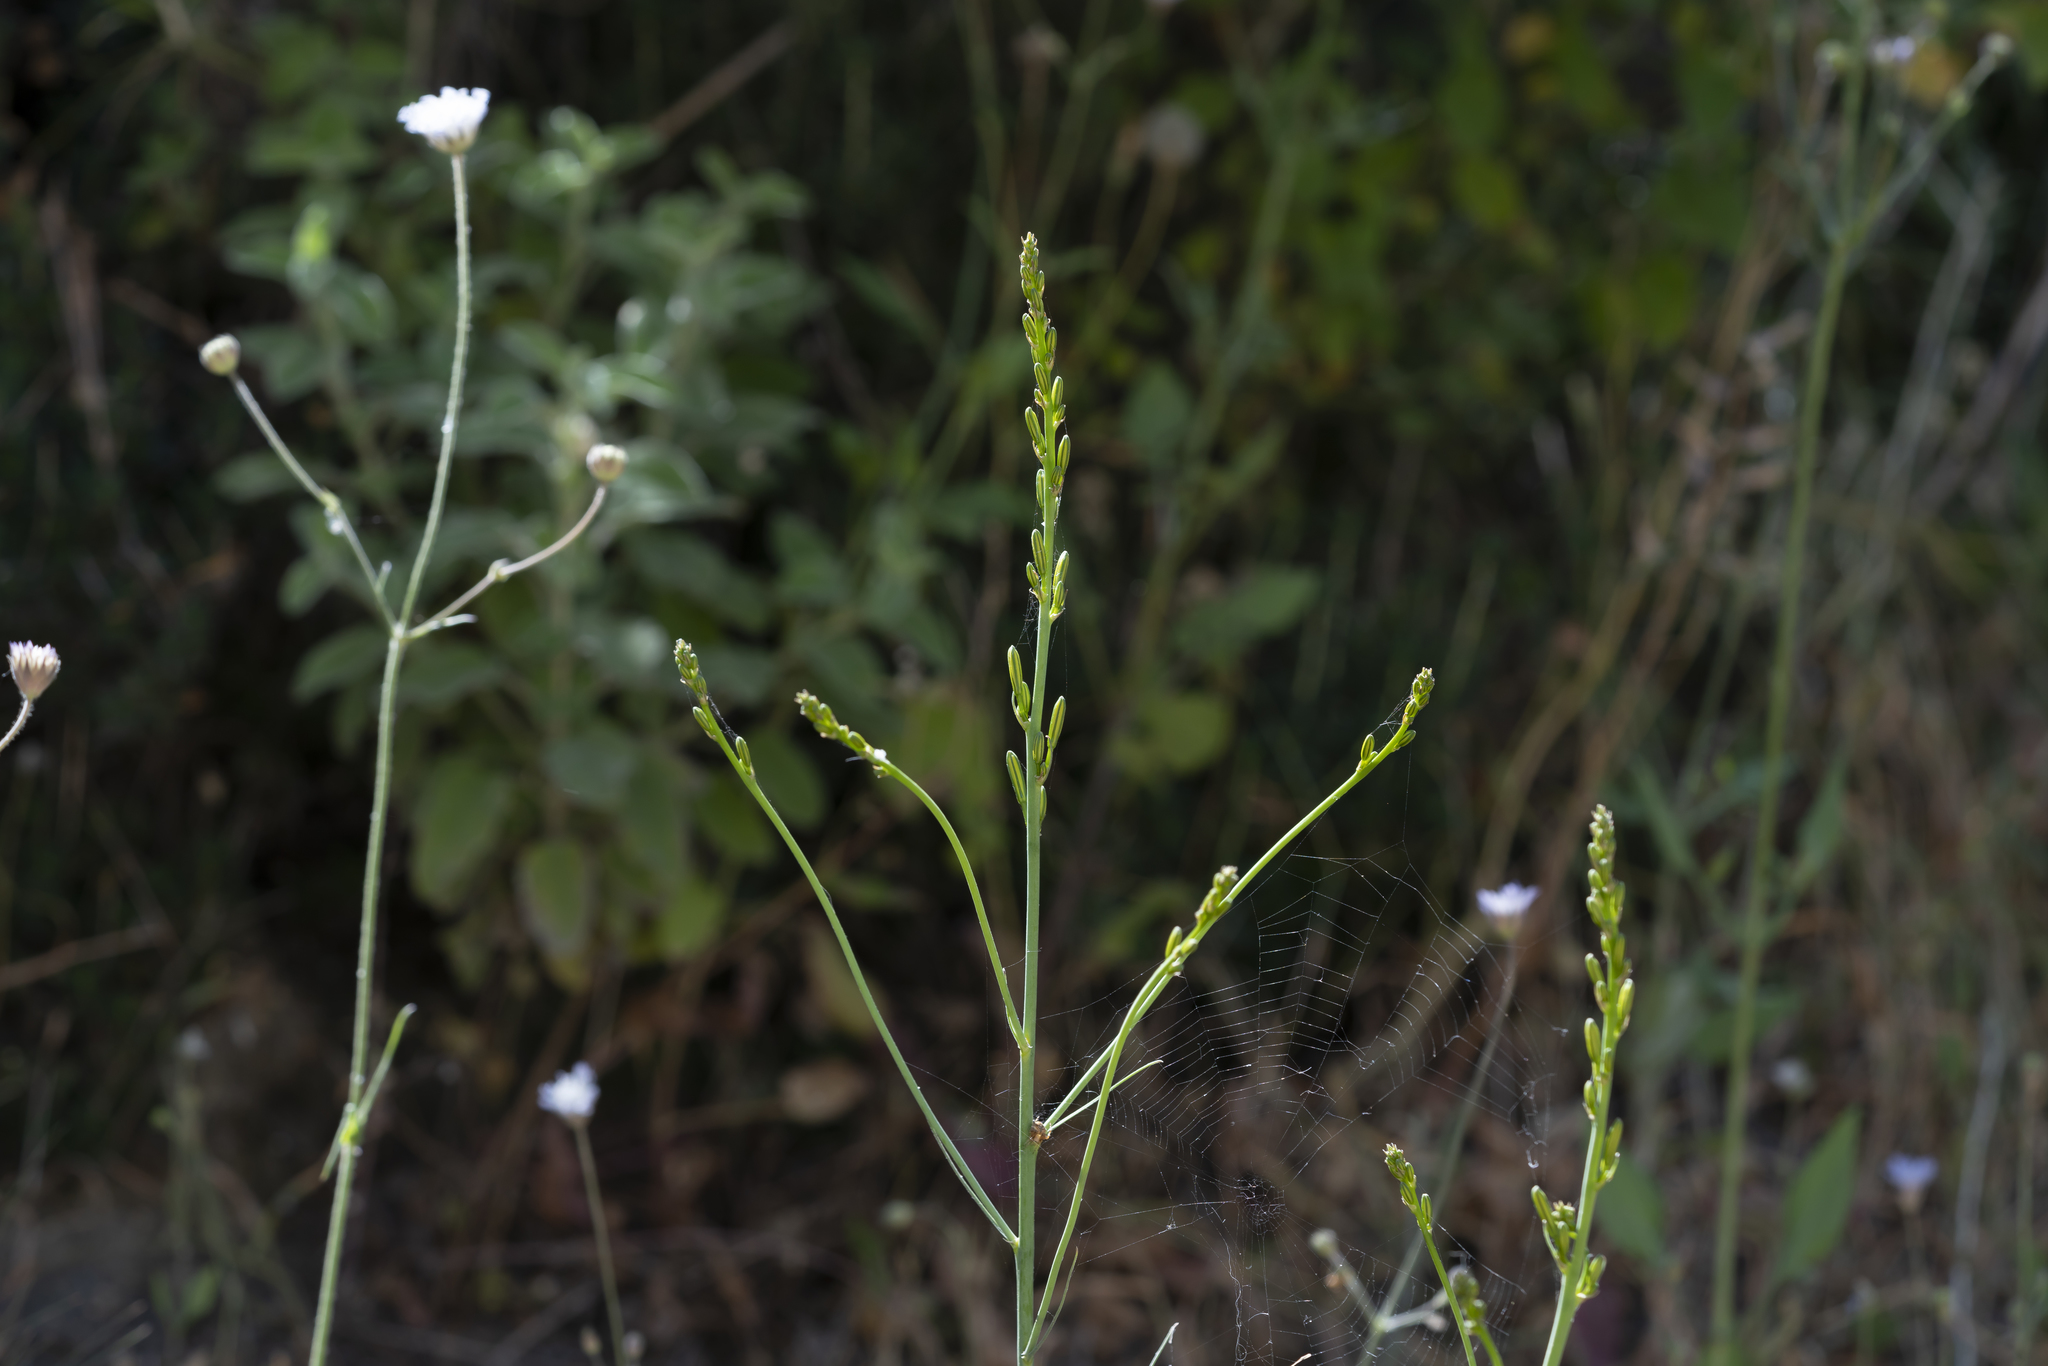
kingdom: Plantae
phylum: Tracheophyta
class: Liliopsida
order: Asparagales
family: Asphodelaceae
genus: Asphodeline
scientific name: Asphodeline liburnica
